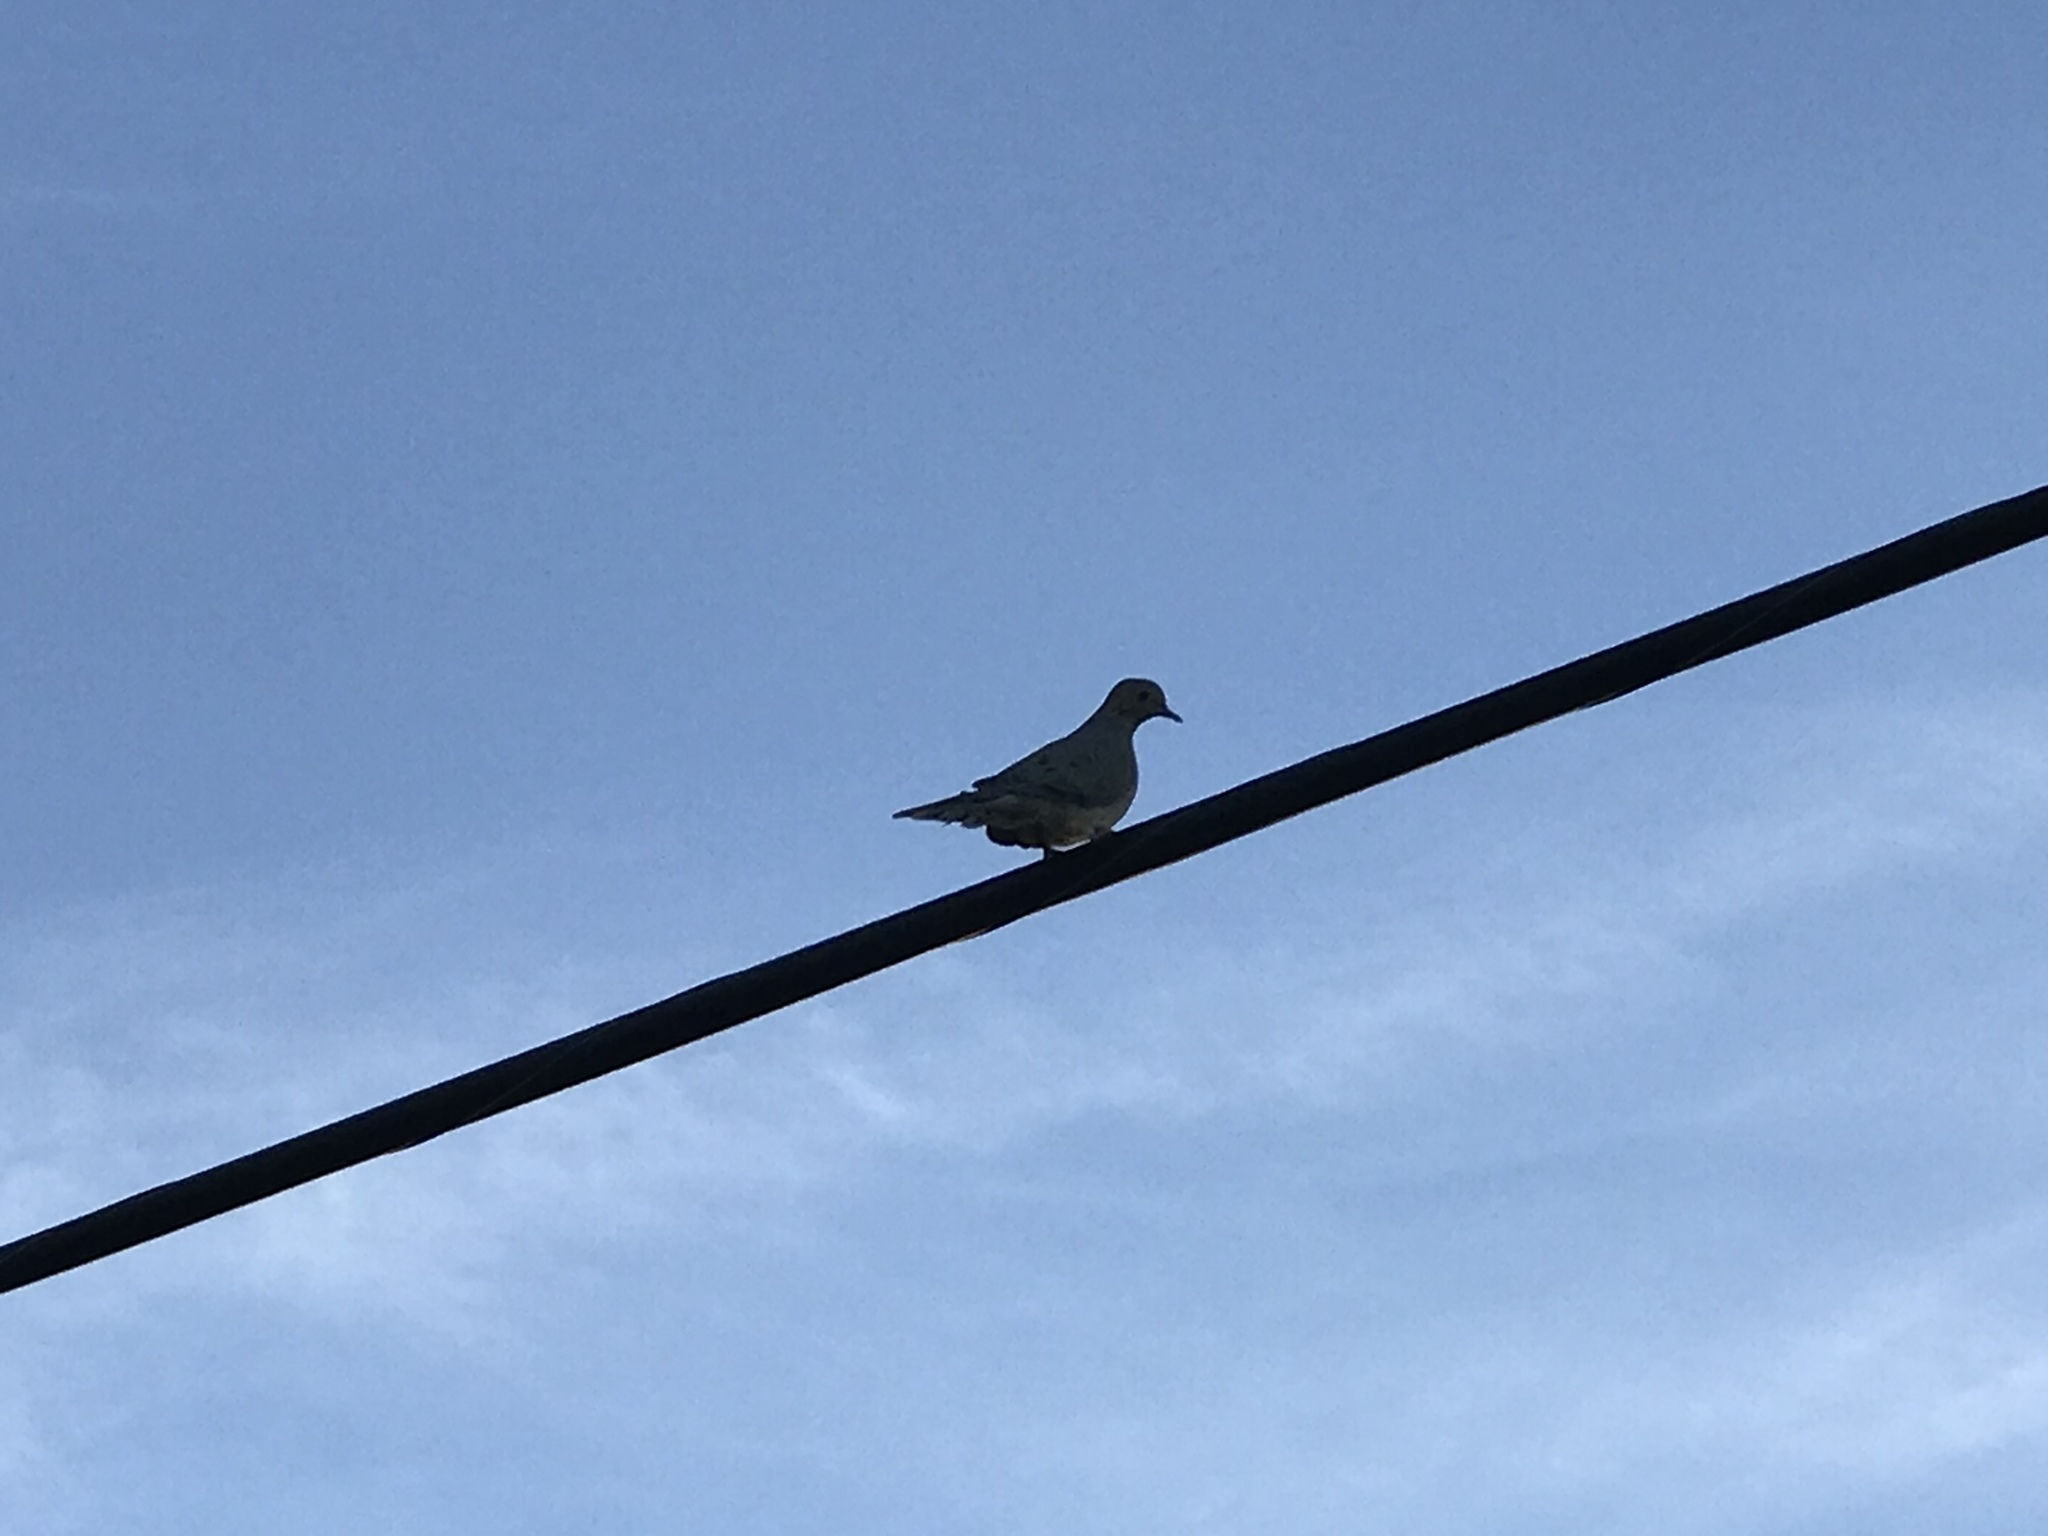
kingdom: Animalia
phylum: Chordata
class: Aves
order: Columbiformes
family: Columbidae
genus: Zenaida
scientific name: Zenaida macroura
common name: Mourning dove
